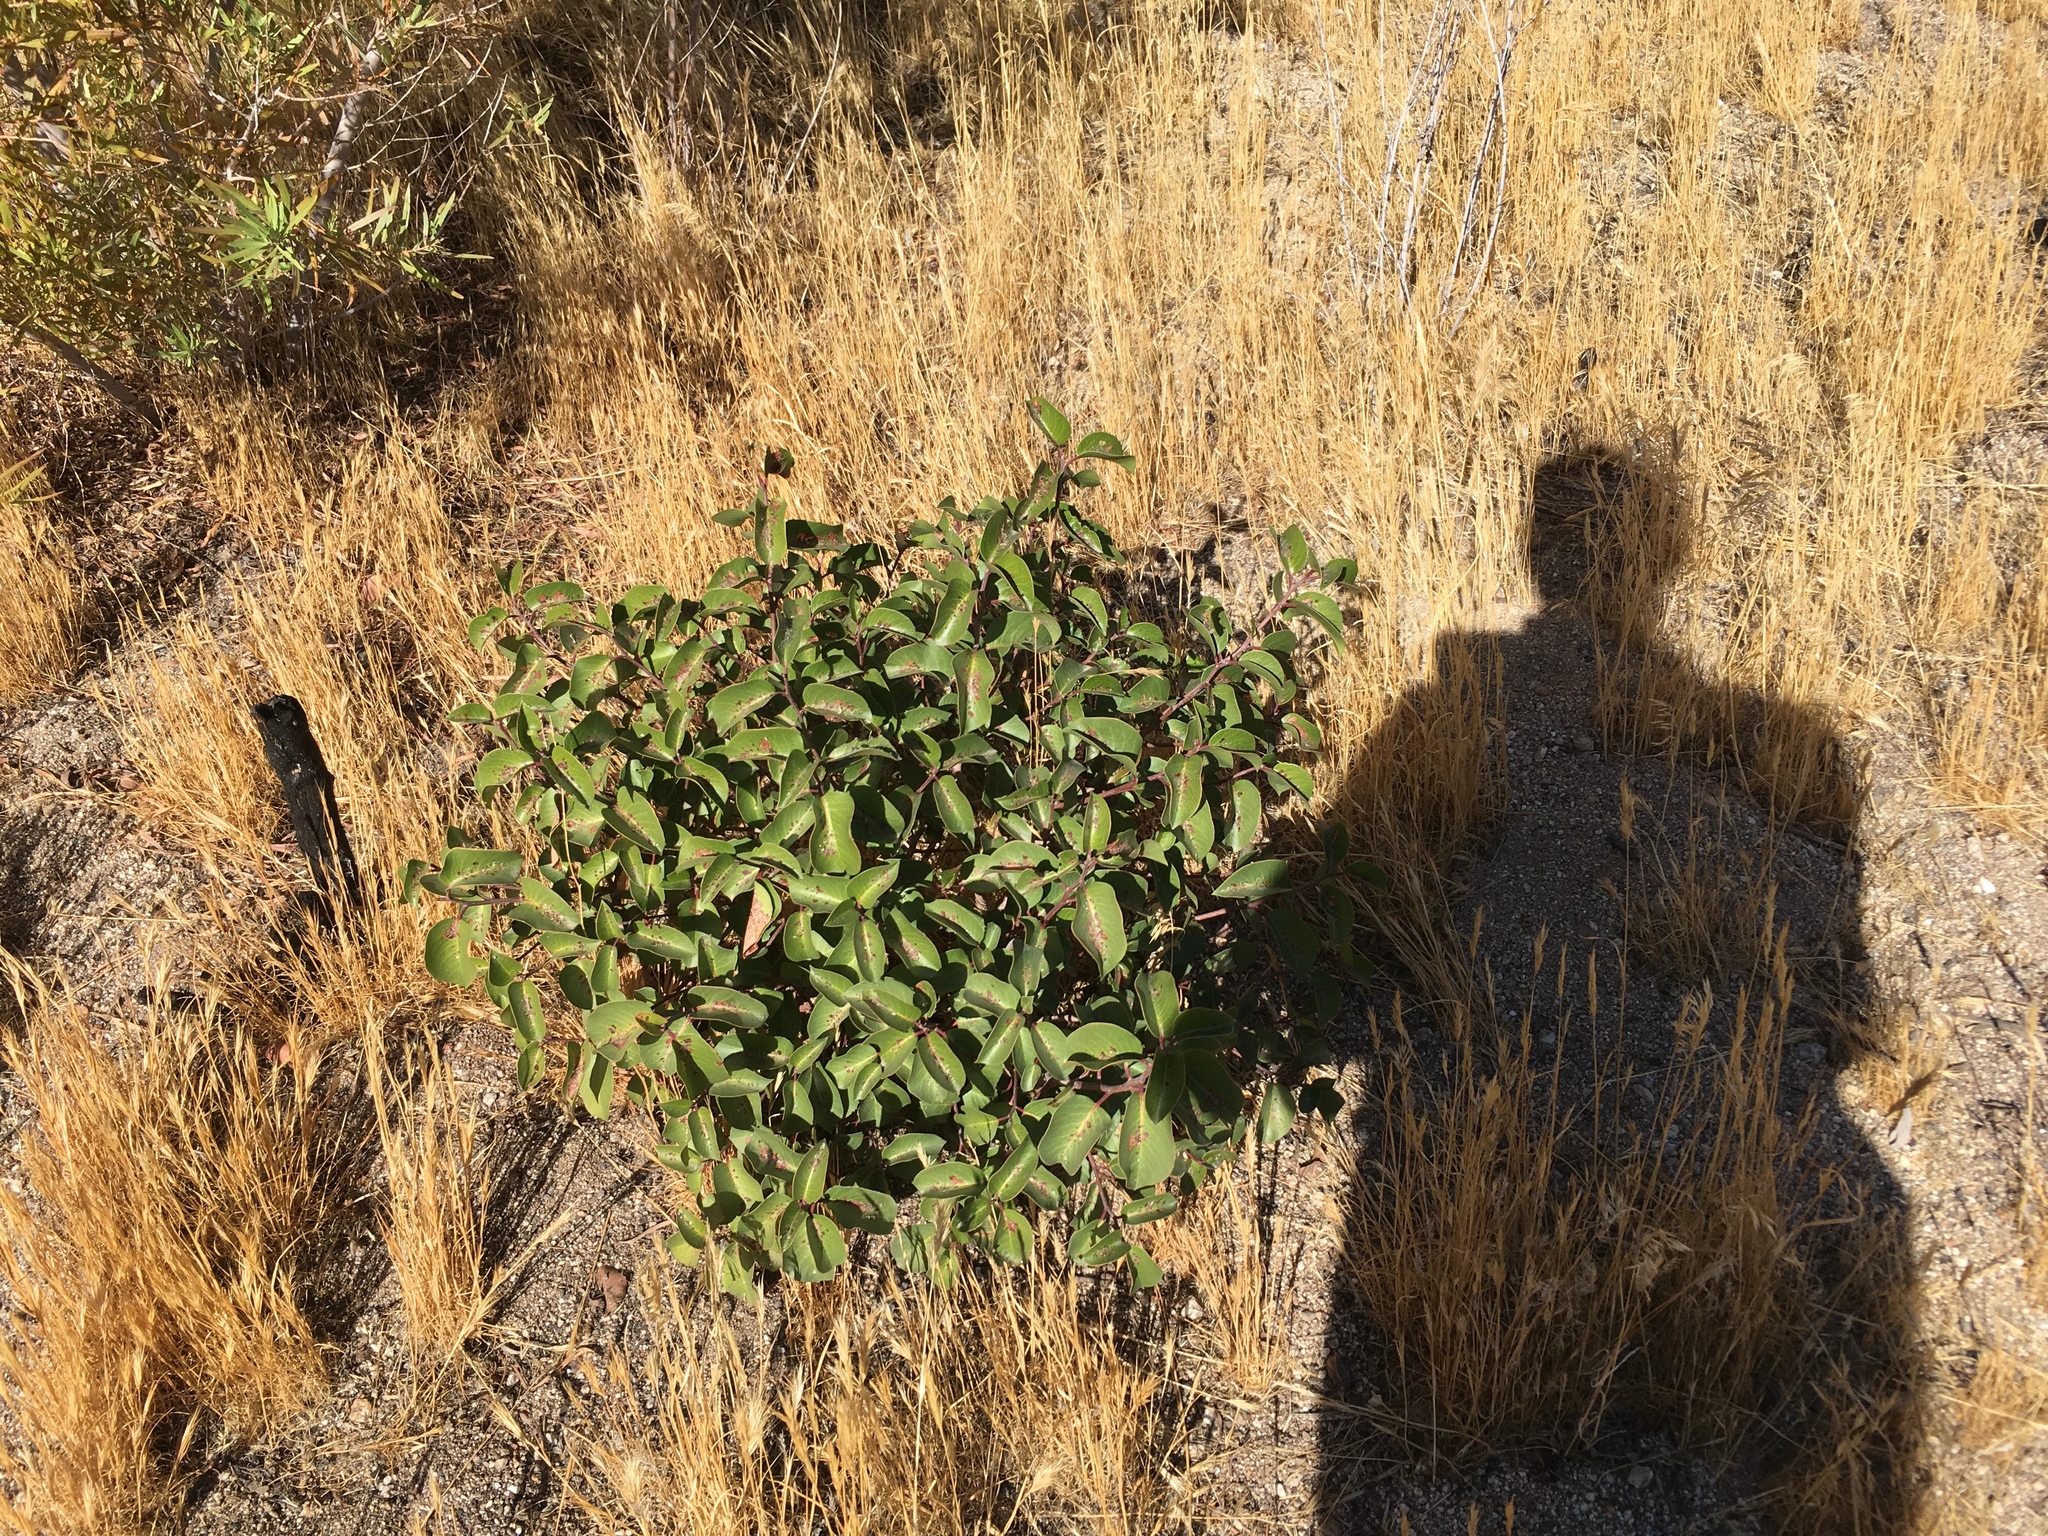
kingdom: Plantae
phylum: Tracheophyta
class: Magnoliopsida
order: Sapindales
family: Anacardiaceae
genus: Rhus
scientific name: Rhus ovata
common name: Sugar sumac
